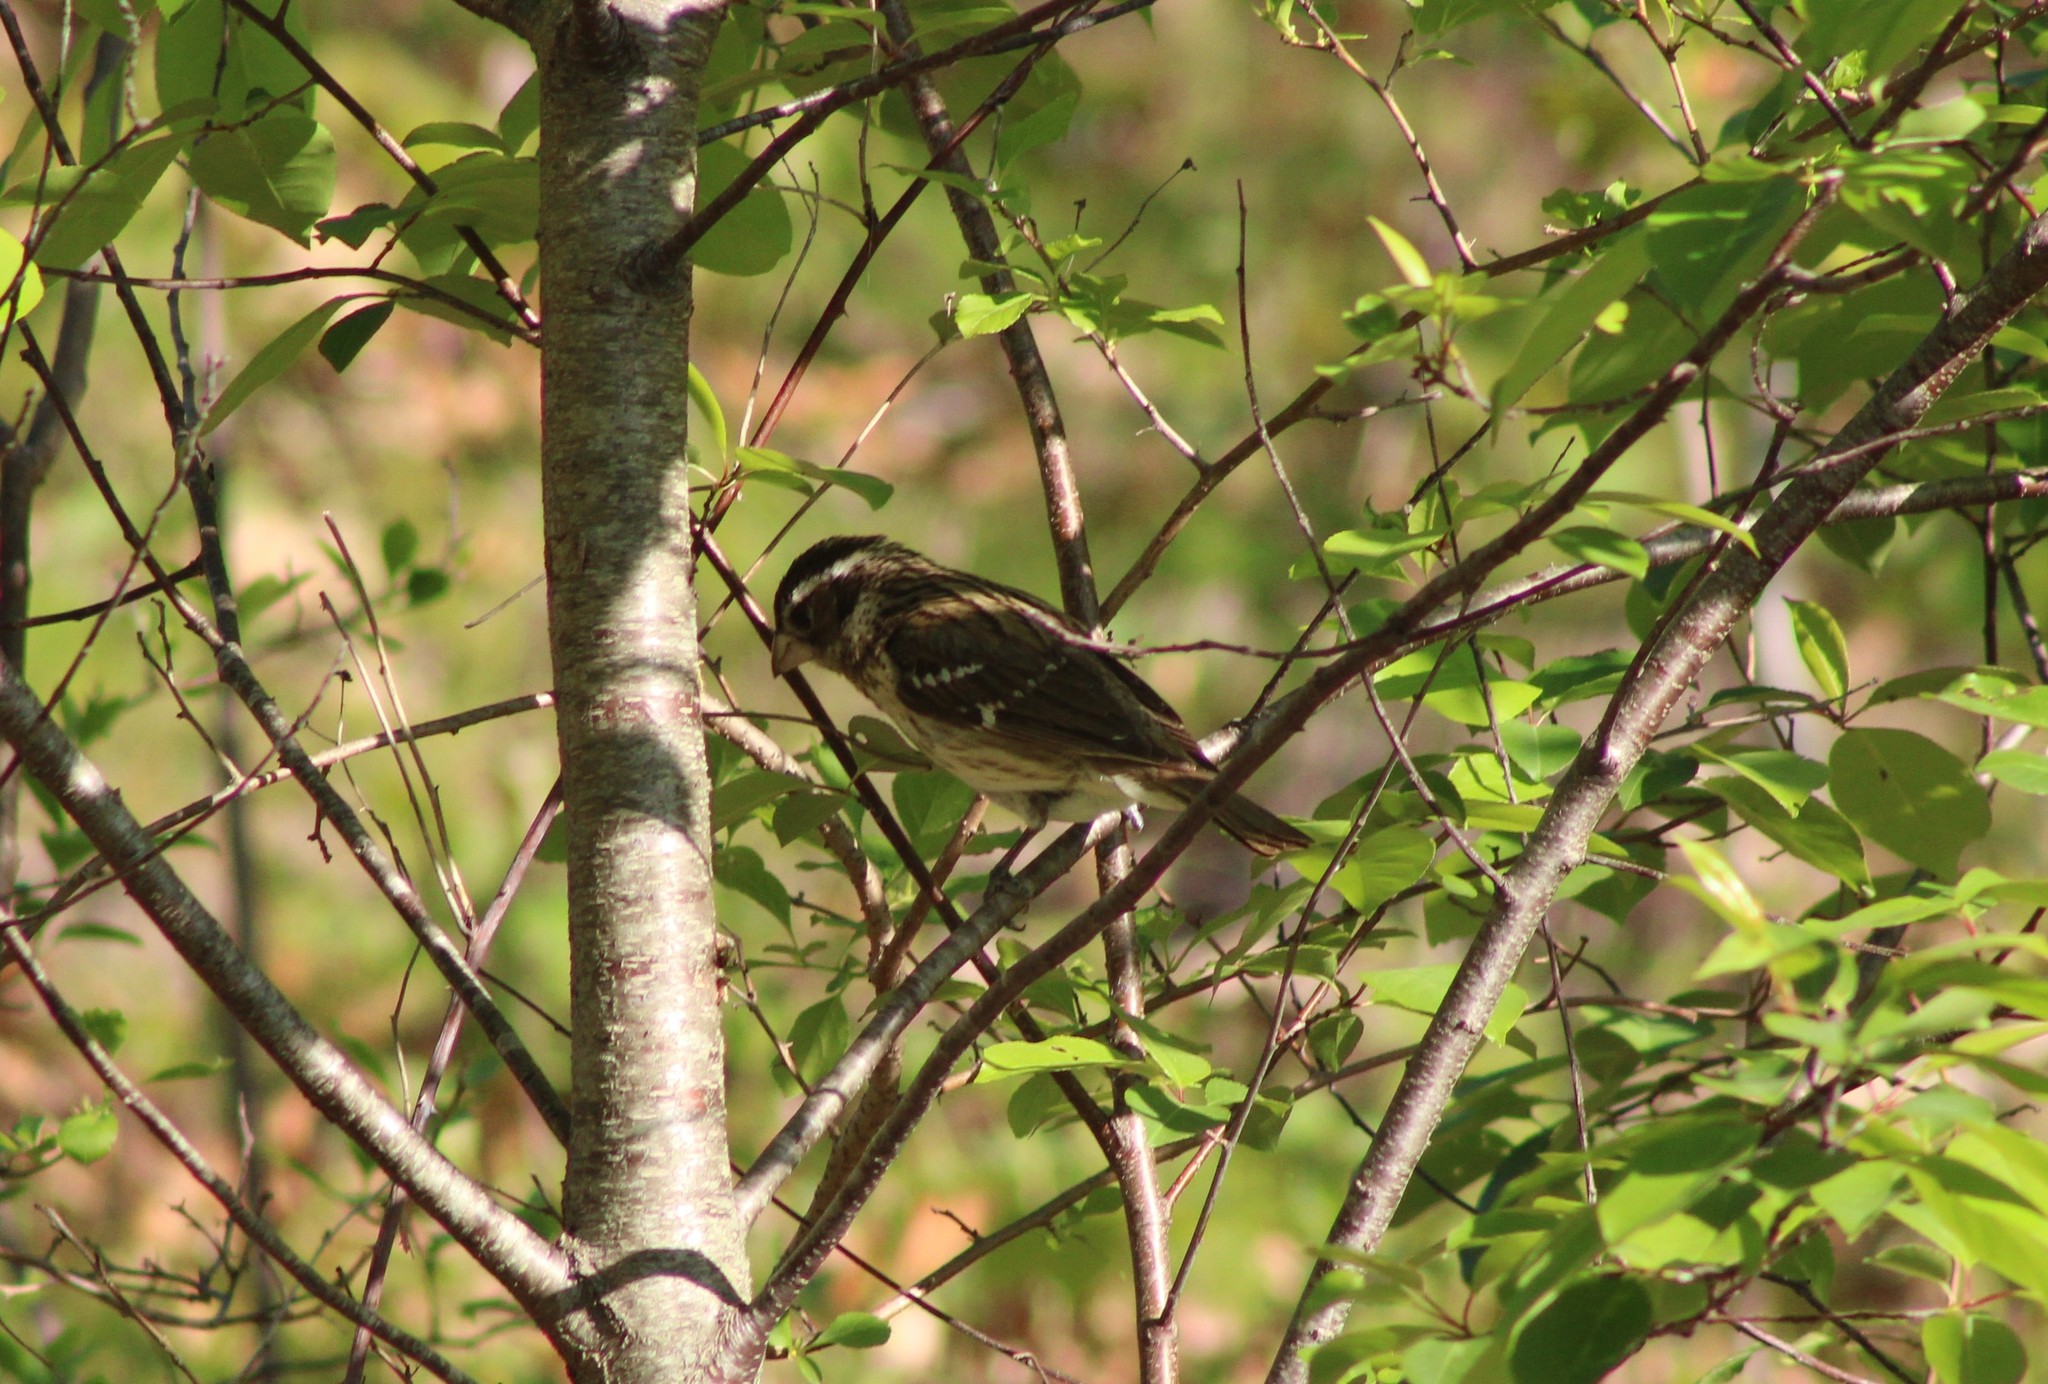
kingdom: Animalia
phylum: Chordata
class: Aves
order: Passeriformes
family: Cardinalidae
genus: Pheucticus
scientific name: Pheucticus ludovicianus
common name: Rose-breasted grosbeak
